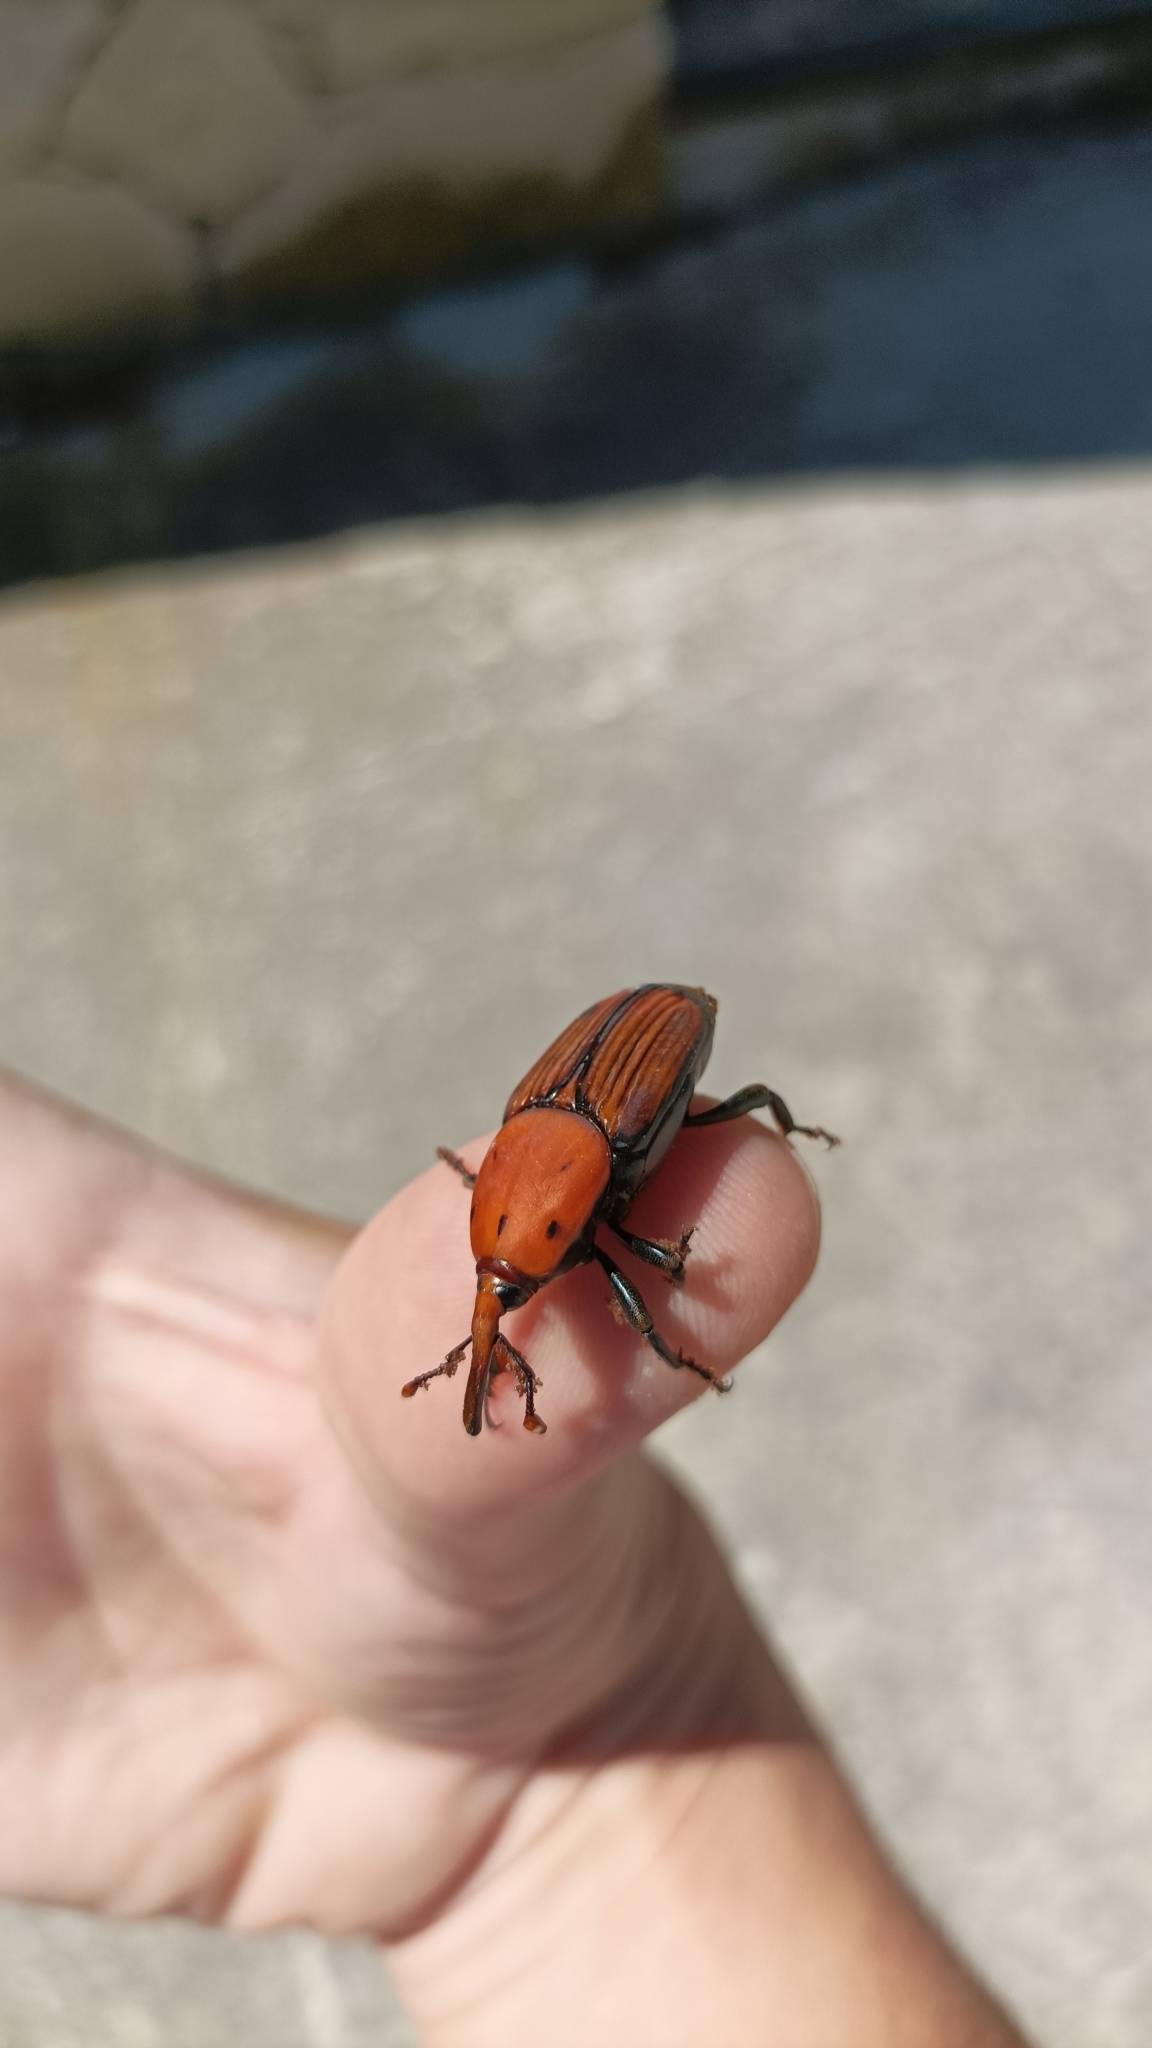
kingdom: Animalia
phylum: Arthropoda
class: Insecta
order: Coleoptera
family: Dryophthoridae
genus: Rhynchophorus
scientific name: Rhynchophorus ferrugineus
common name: Red palm weevil
